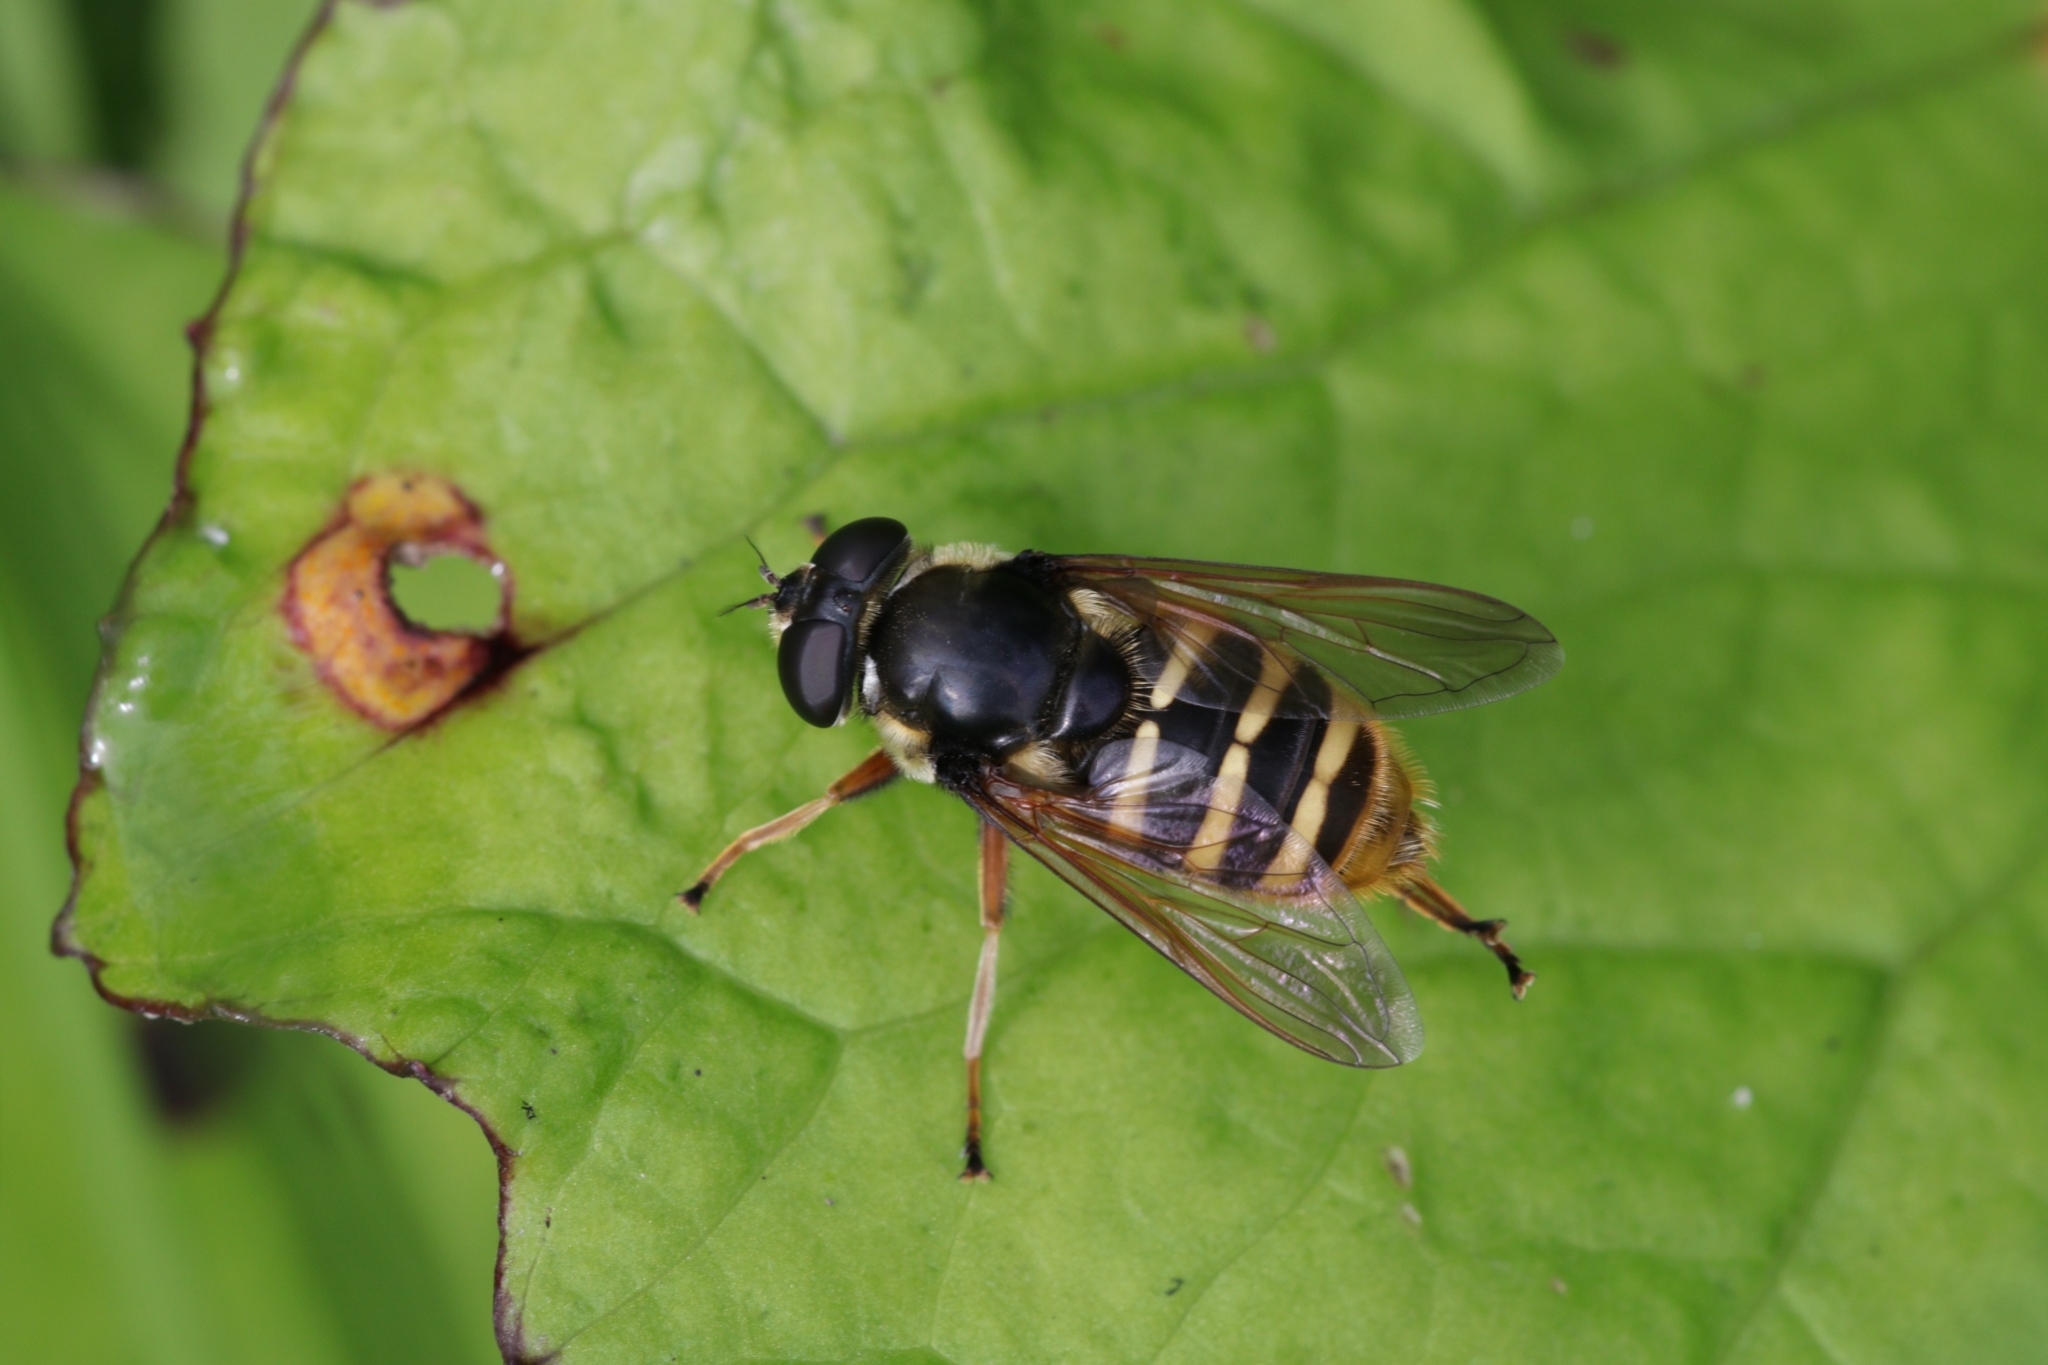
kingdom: Animalia
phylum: Arthropoda
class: Insecta
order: Diptera
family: Syrphidae
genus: Sericomyia
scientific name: Sericomyia silentis
